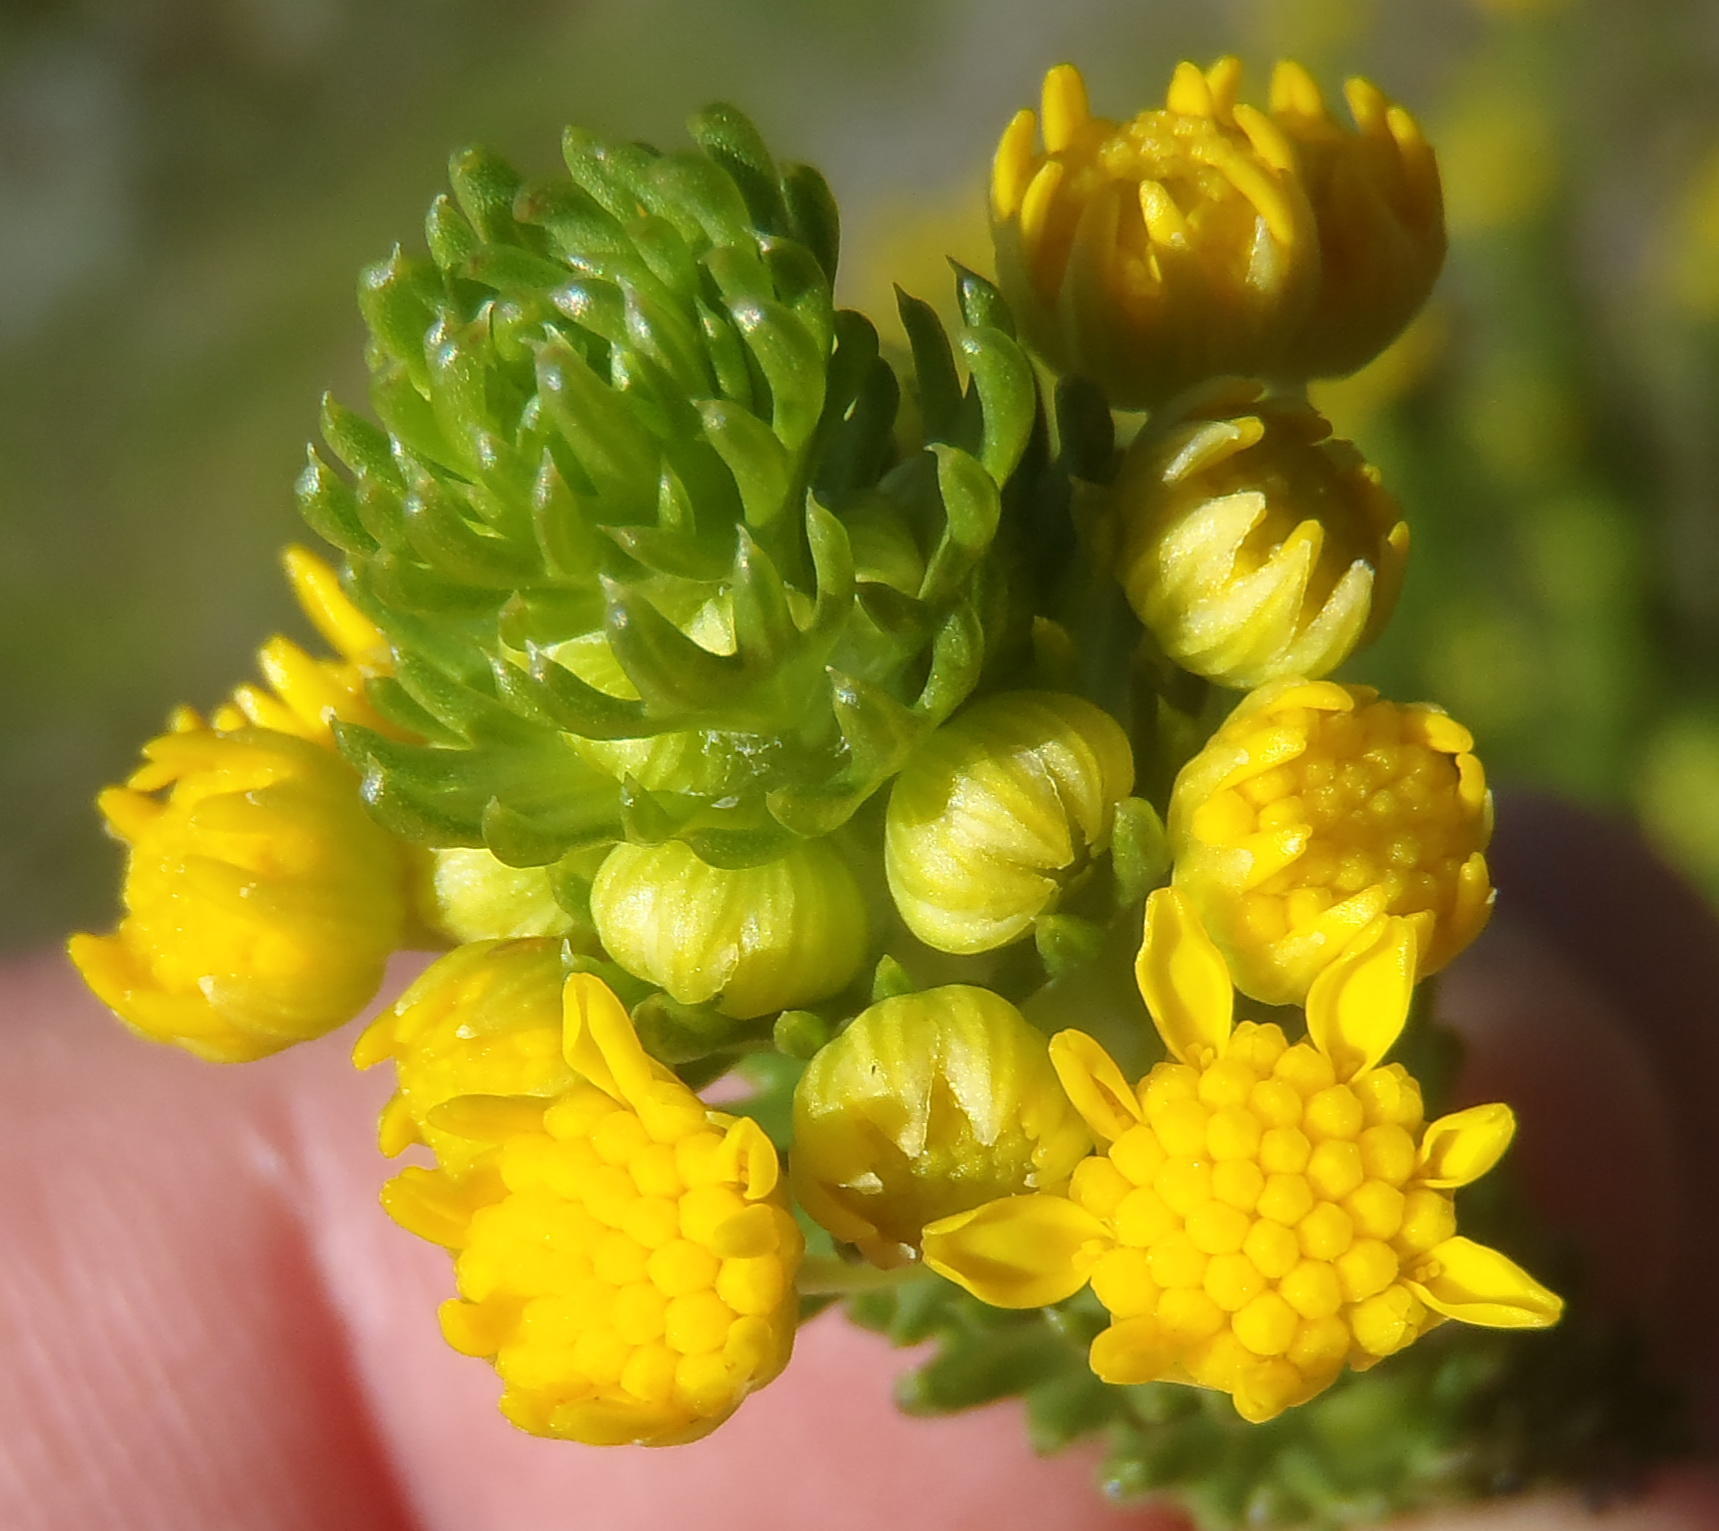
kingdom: Plantae
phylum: Tracheophyta
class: Magnoliopsida
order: Asterales
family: Asteraceae
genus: Euryops
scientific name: Euryops virgineus
